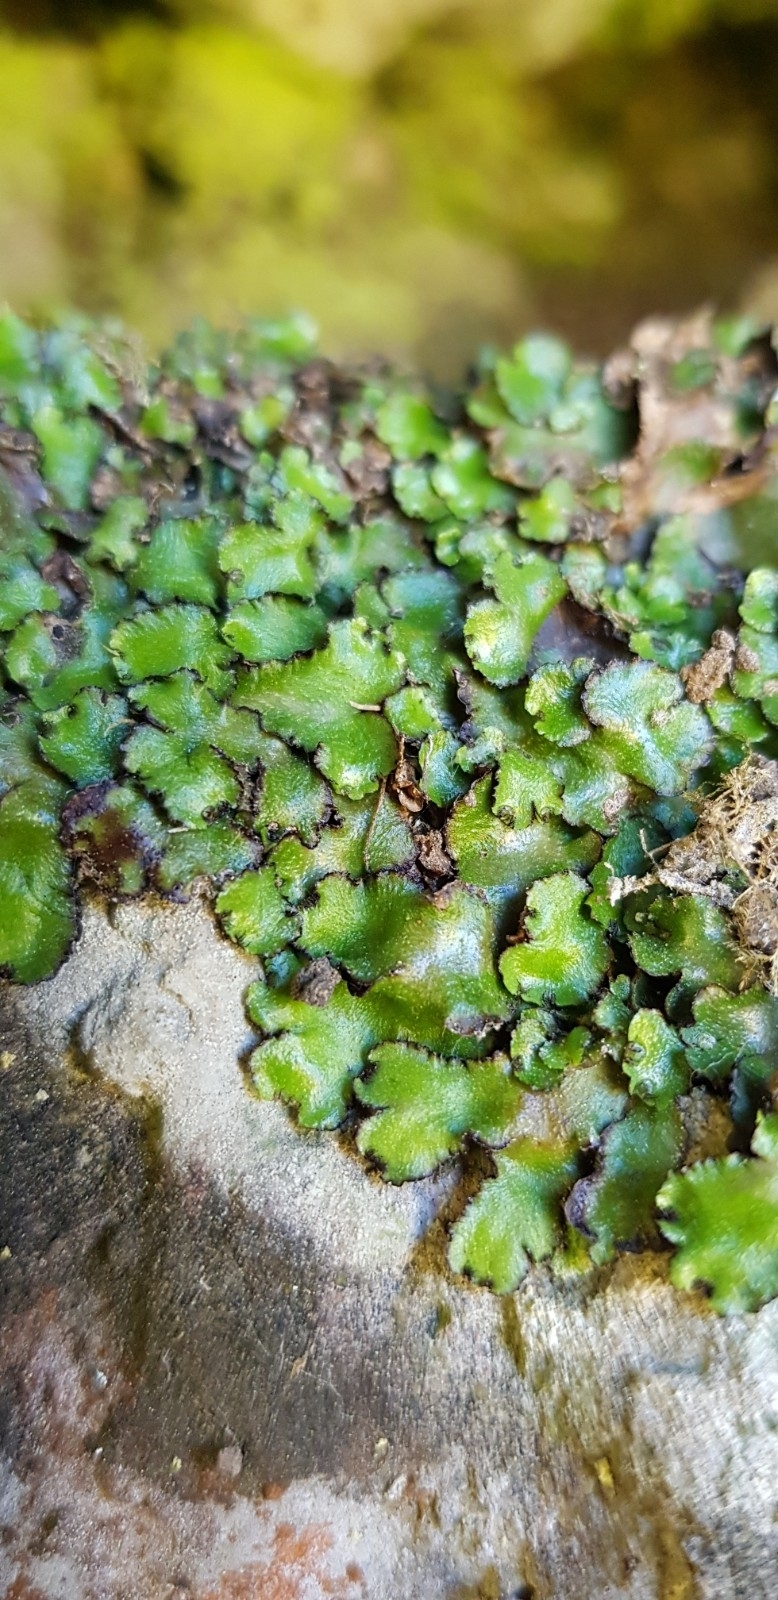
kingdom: Plantae
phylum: Marchantiophyta
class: Marchantiopsida
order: Marchantiales
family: Aytoniaceae
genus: Reboulia
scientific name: Reboulia hemisphaerica
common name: Purple-margined liverwort
